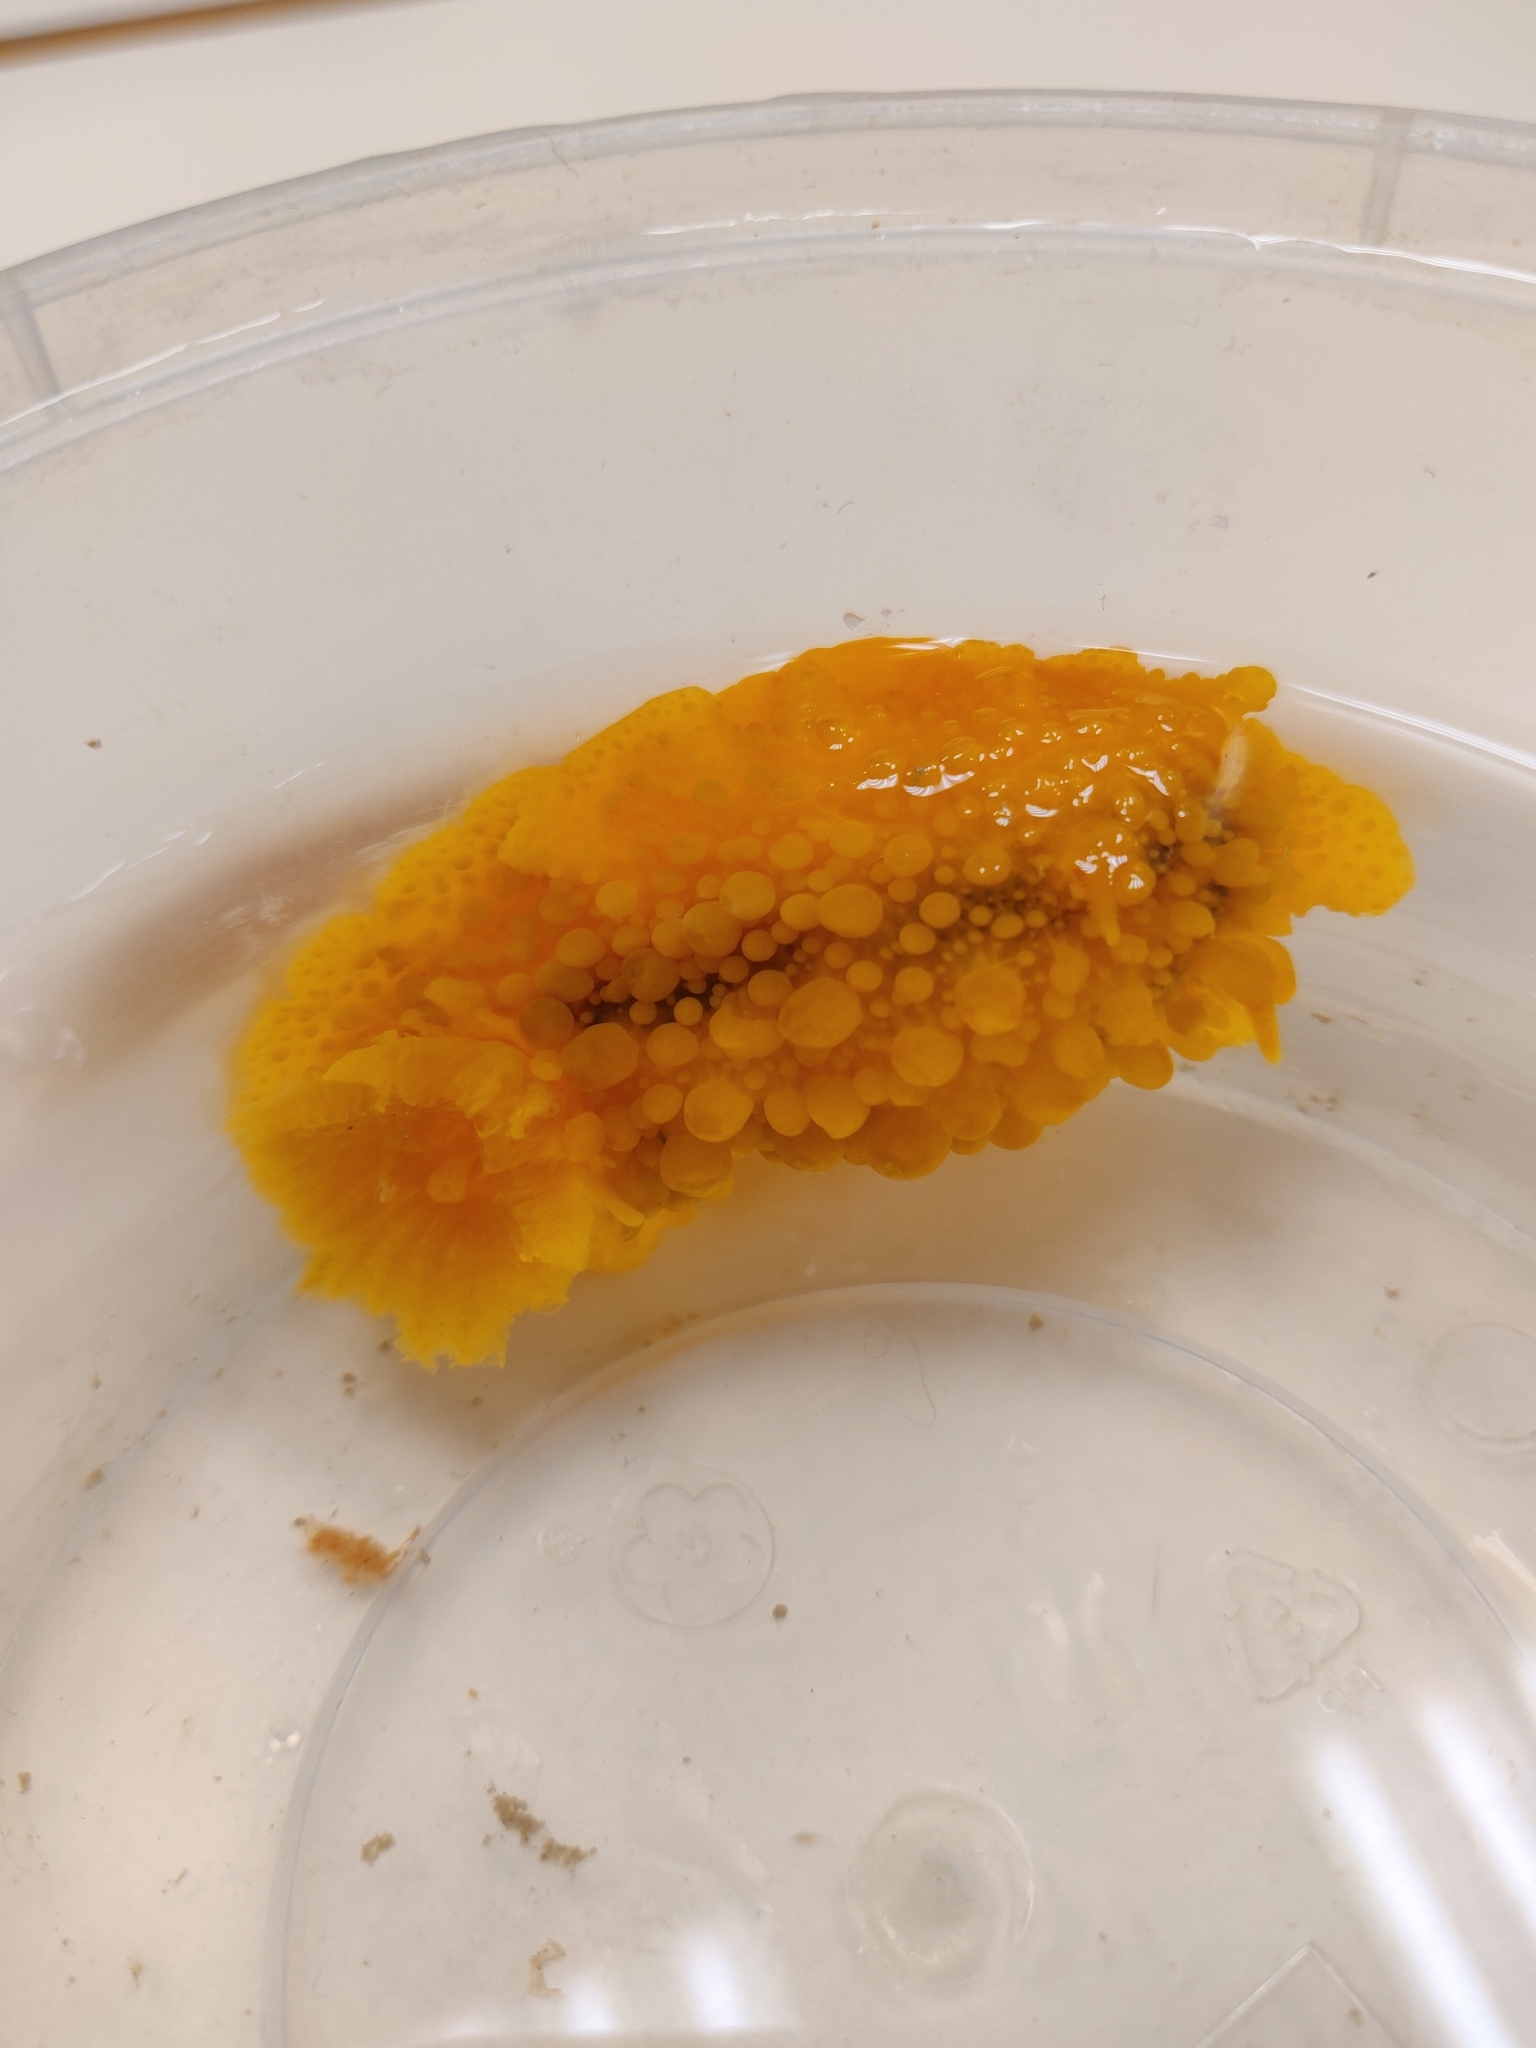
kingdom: Animalia
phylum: Mollusca
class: Gastropoda
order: Nudibranchia
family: Dorididae
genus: Doris
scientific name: Doris verrucosa
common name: Sponge seaslug
